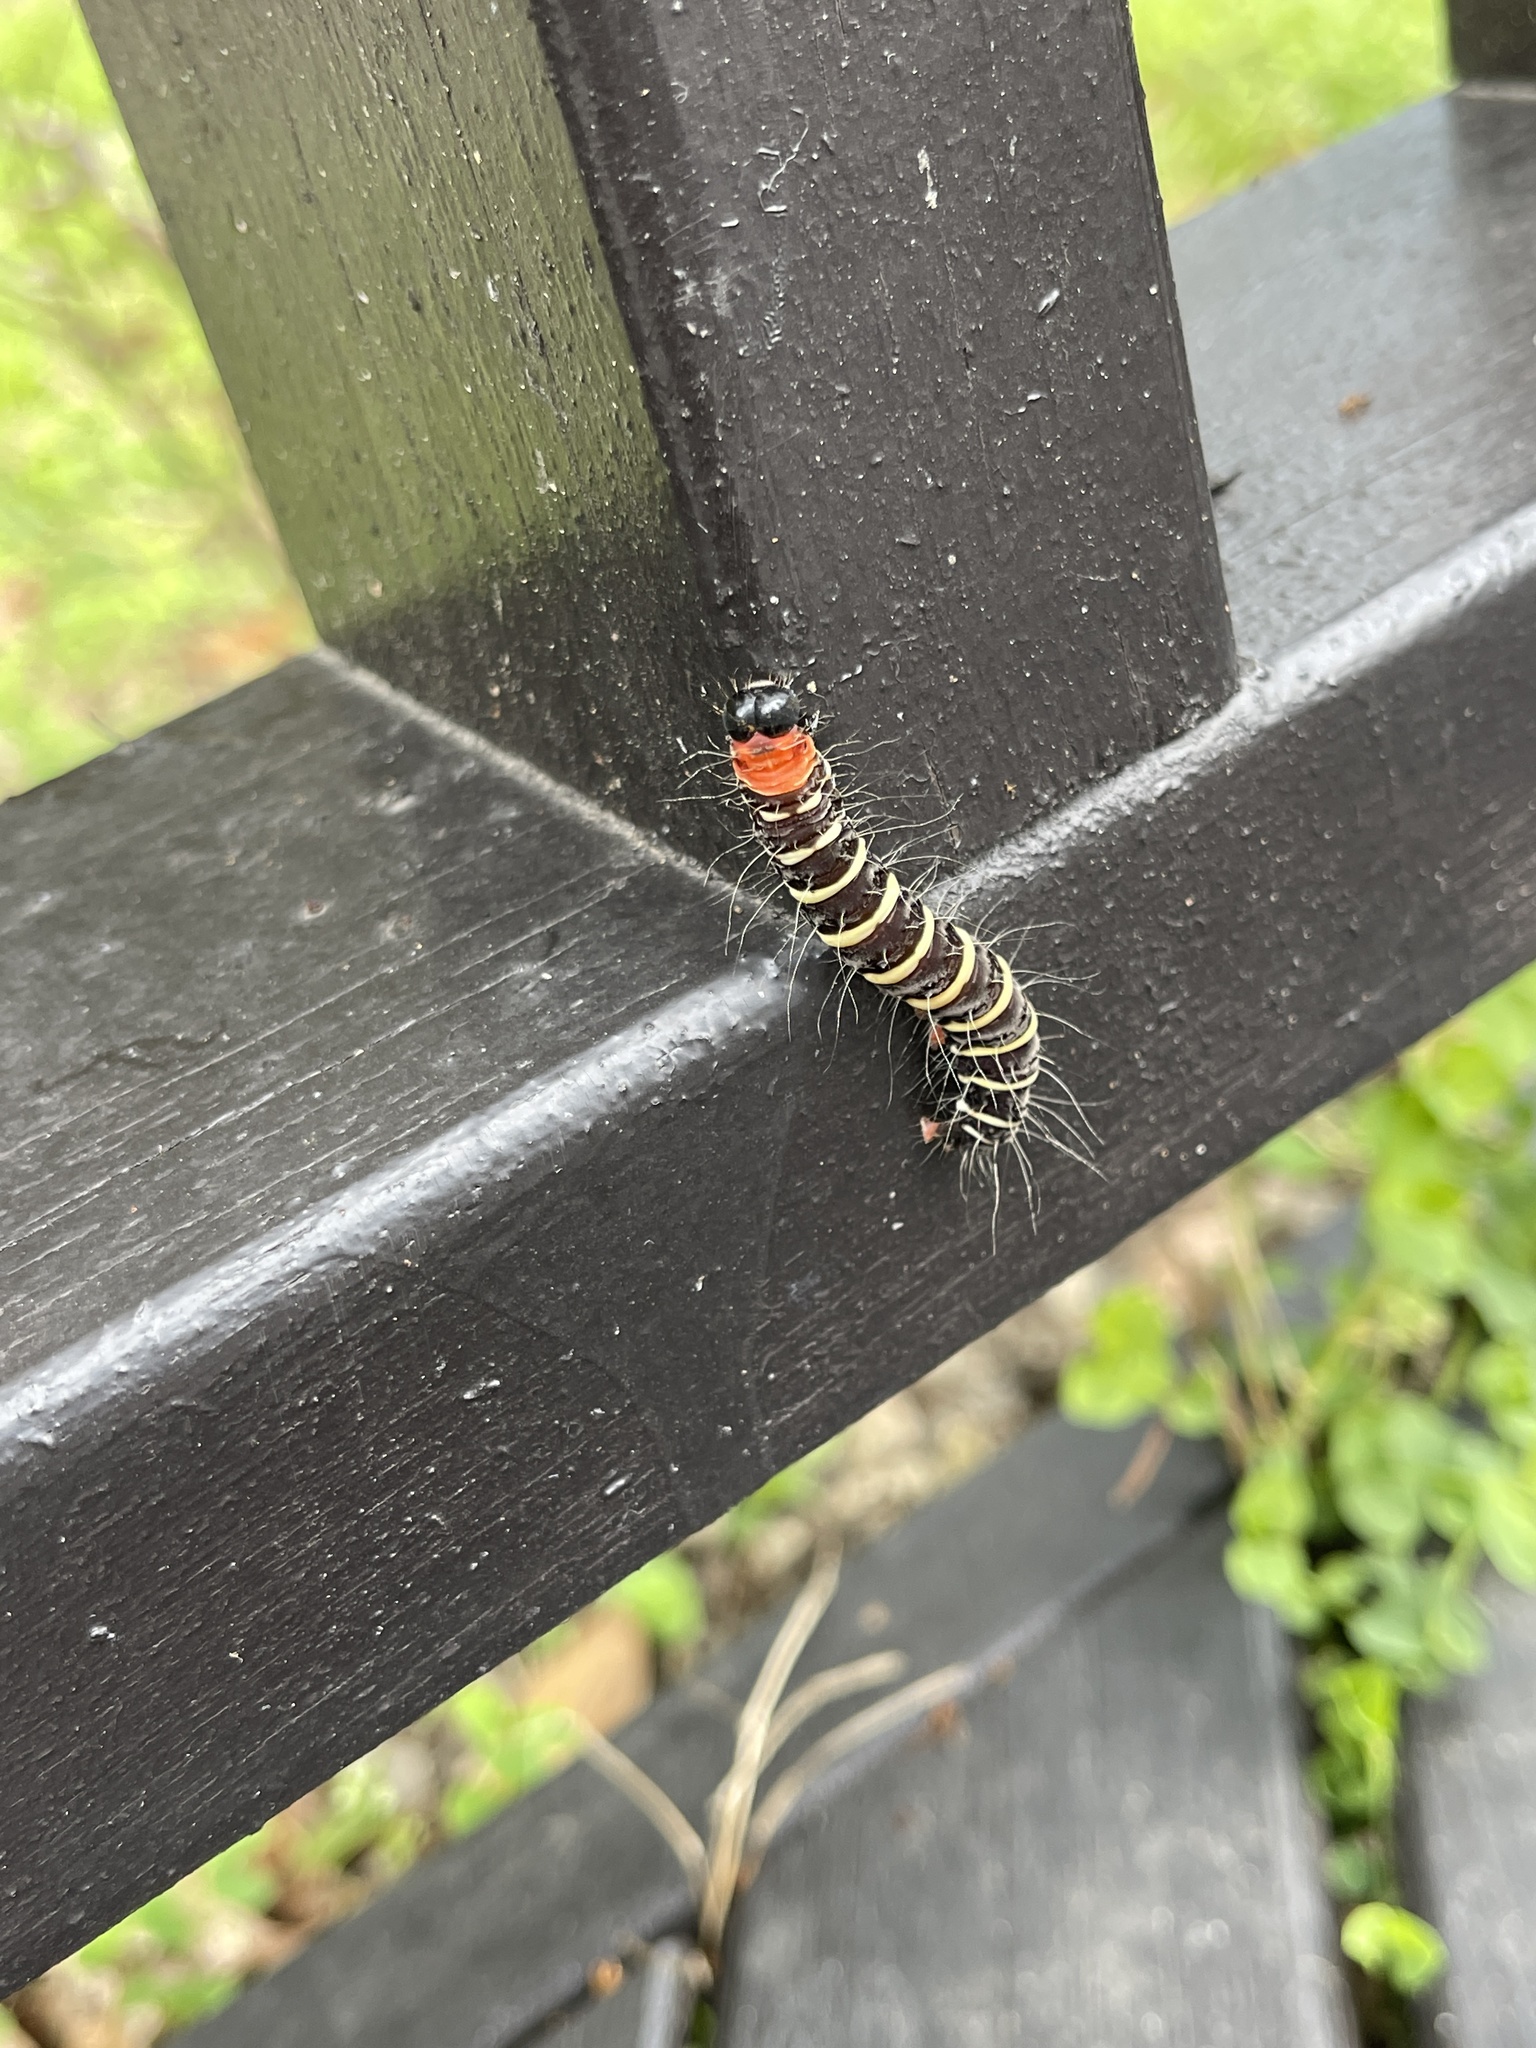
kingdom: Animalia
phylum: Arthropoda
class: Insecta
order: Lepidoptera
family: Erebidae
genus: Asota
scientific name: Asota plana
